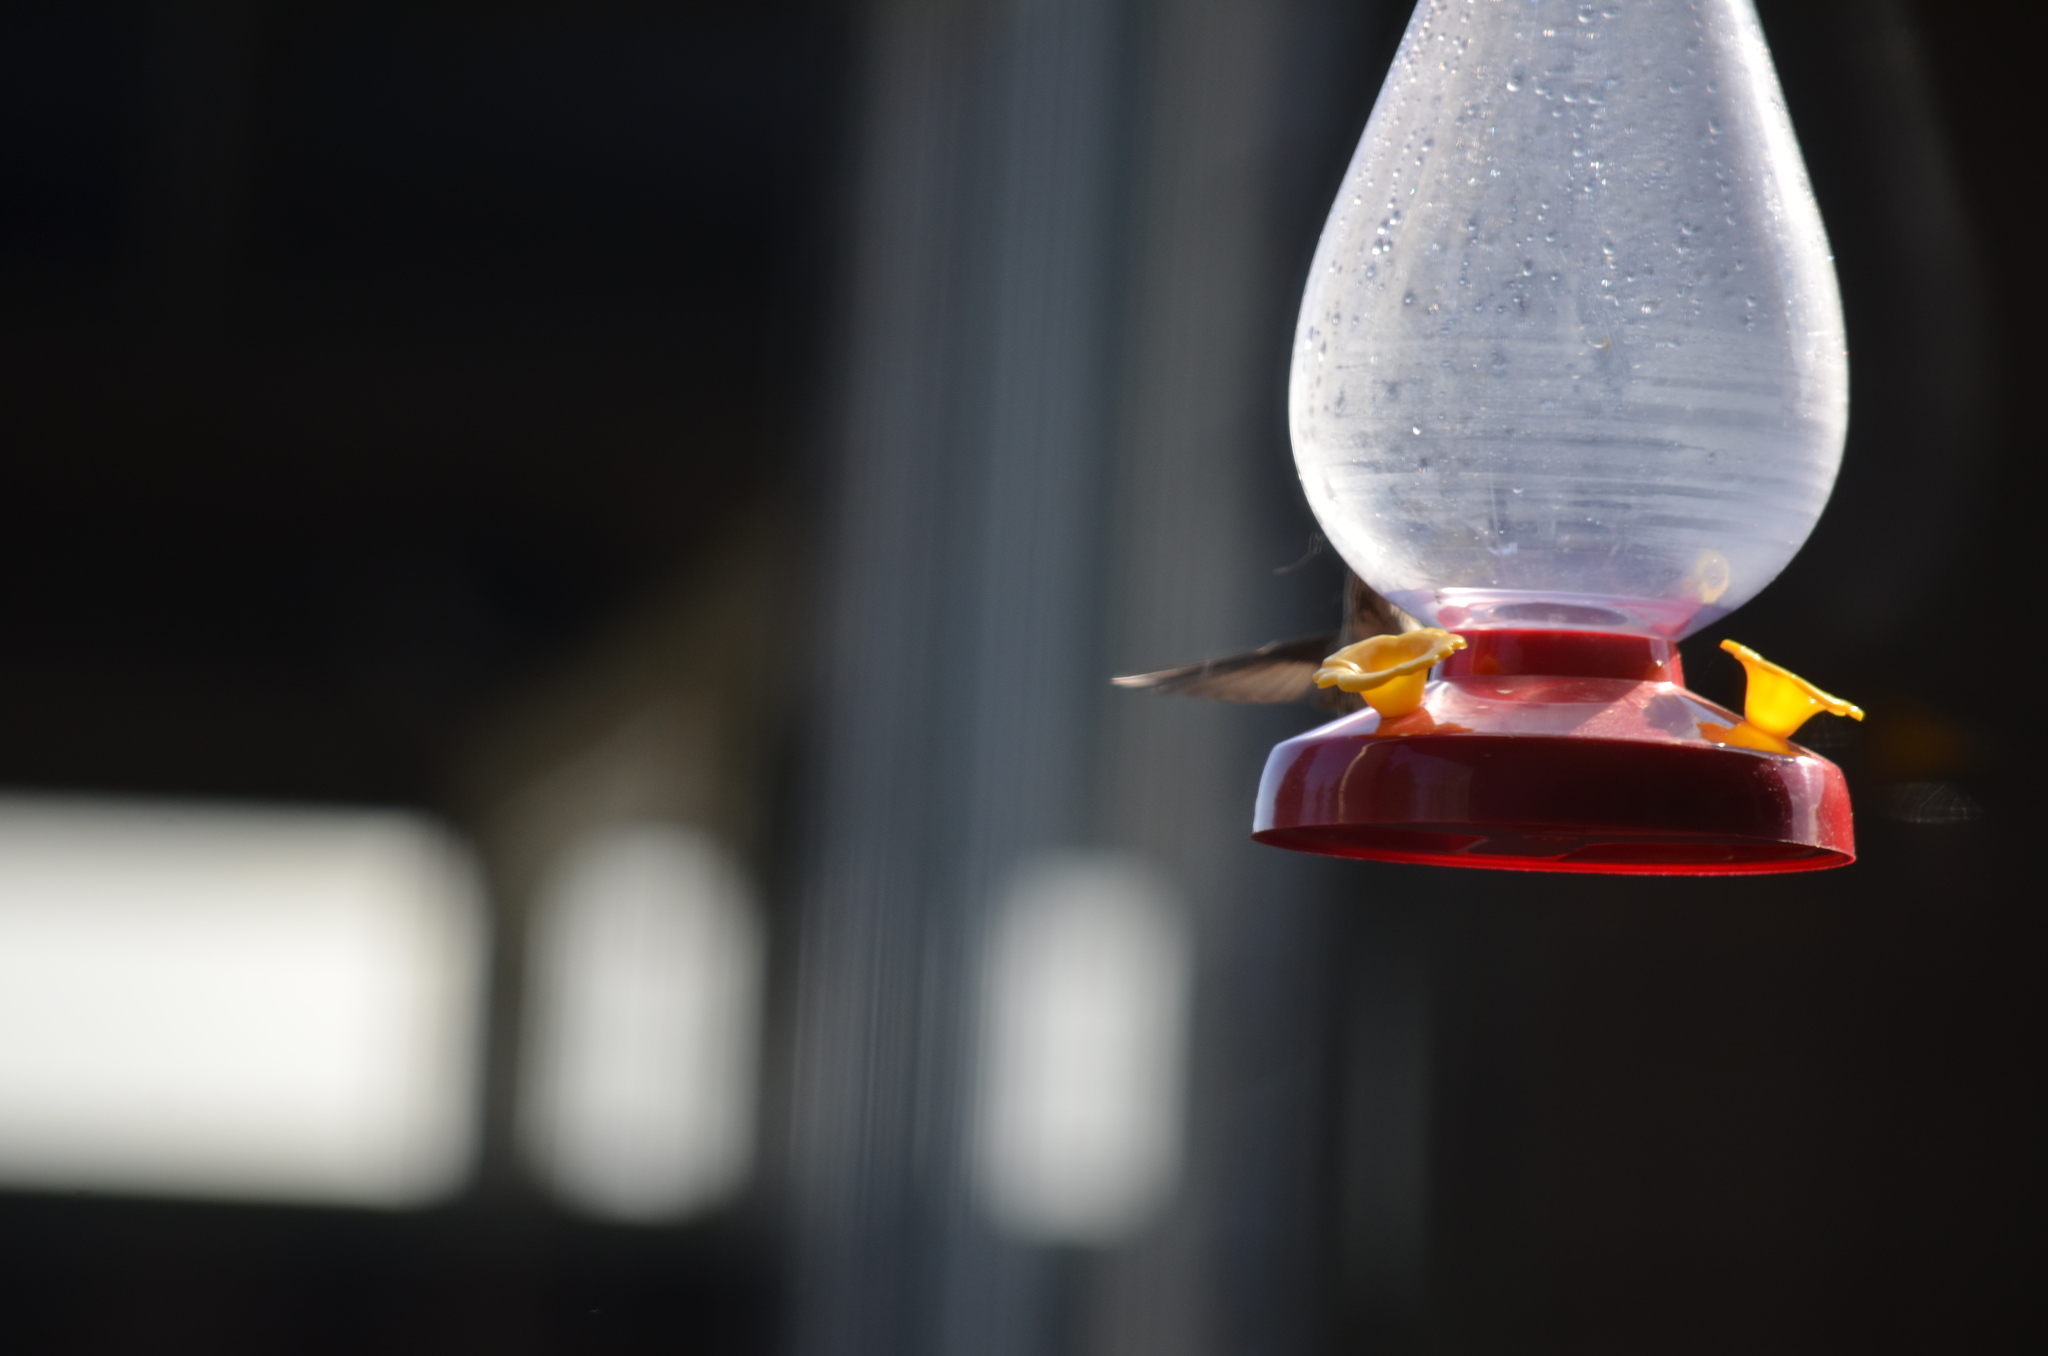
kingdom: Animalia
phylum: Chordata
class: Aves
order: Apodiformes
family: Trochilidae
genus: Calypte
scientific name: Calypte anna
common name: Anna's hummingbird
